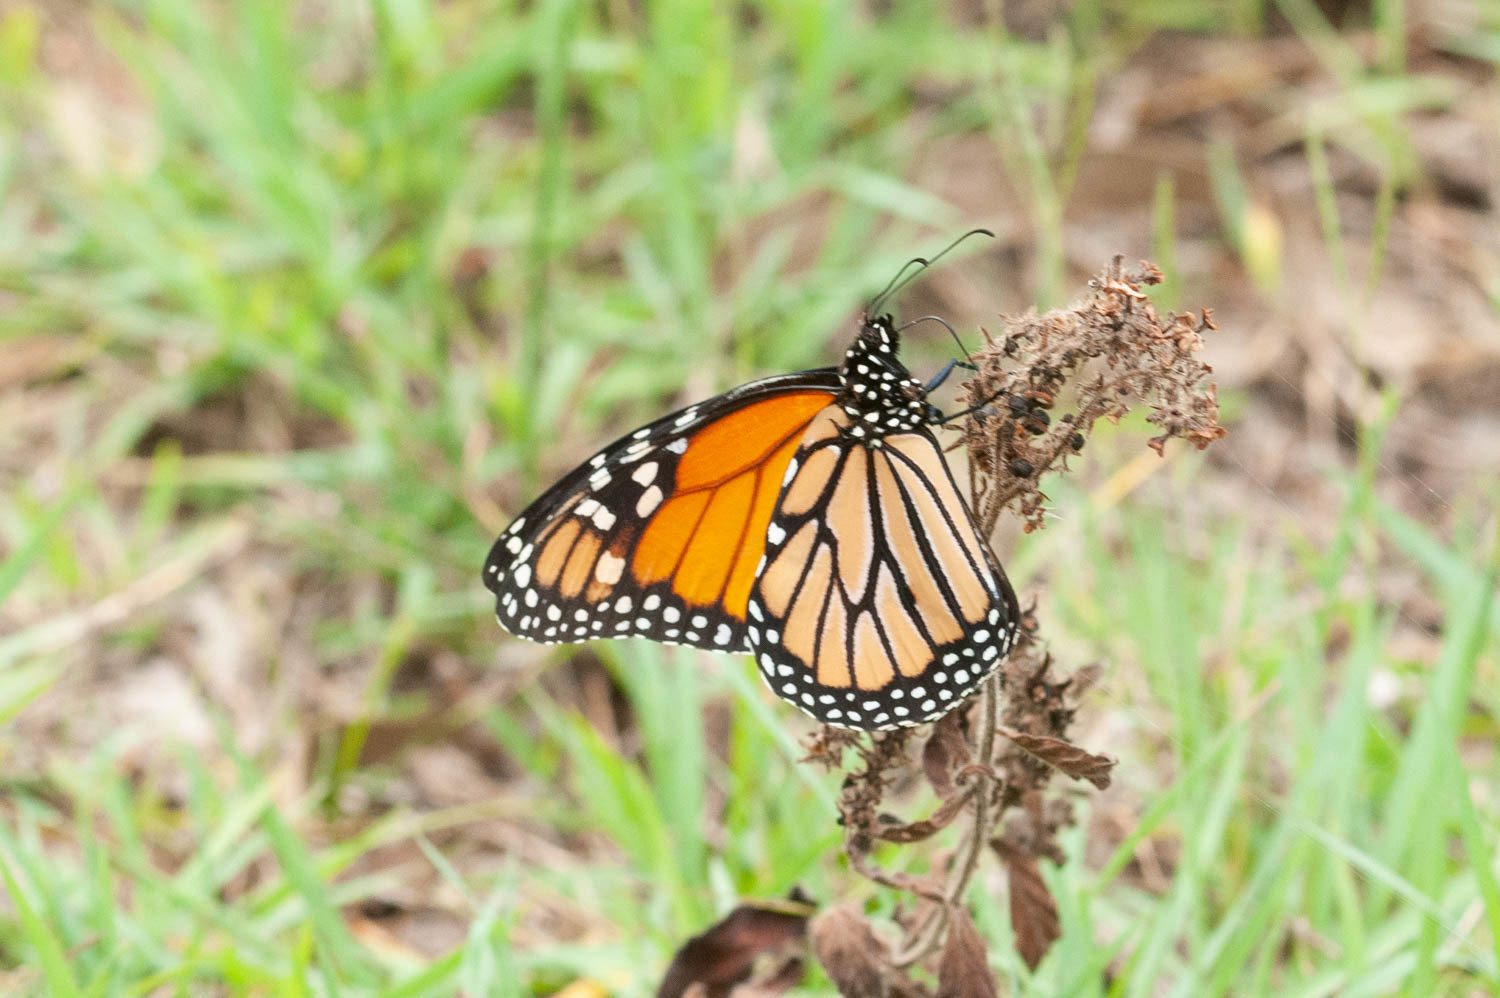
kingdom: Animalia
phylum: Arthropoda
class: Insecta
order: Lepidoptera
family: Nymphalidae
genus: Danaus
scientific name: Danaus plexippus
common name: Monarch
